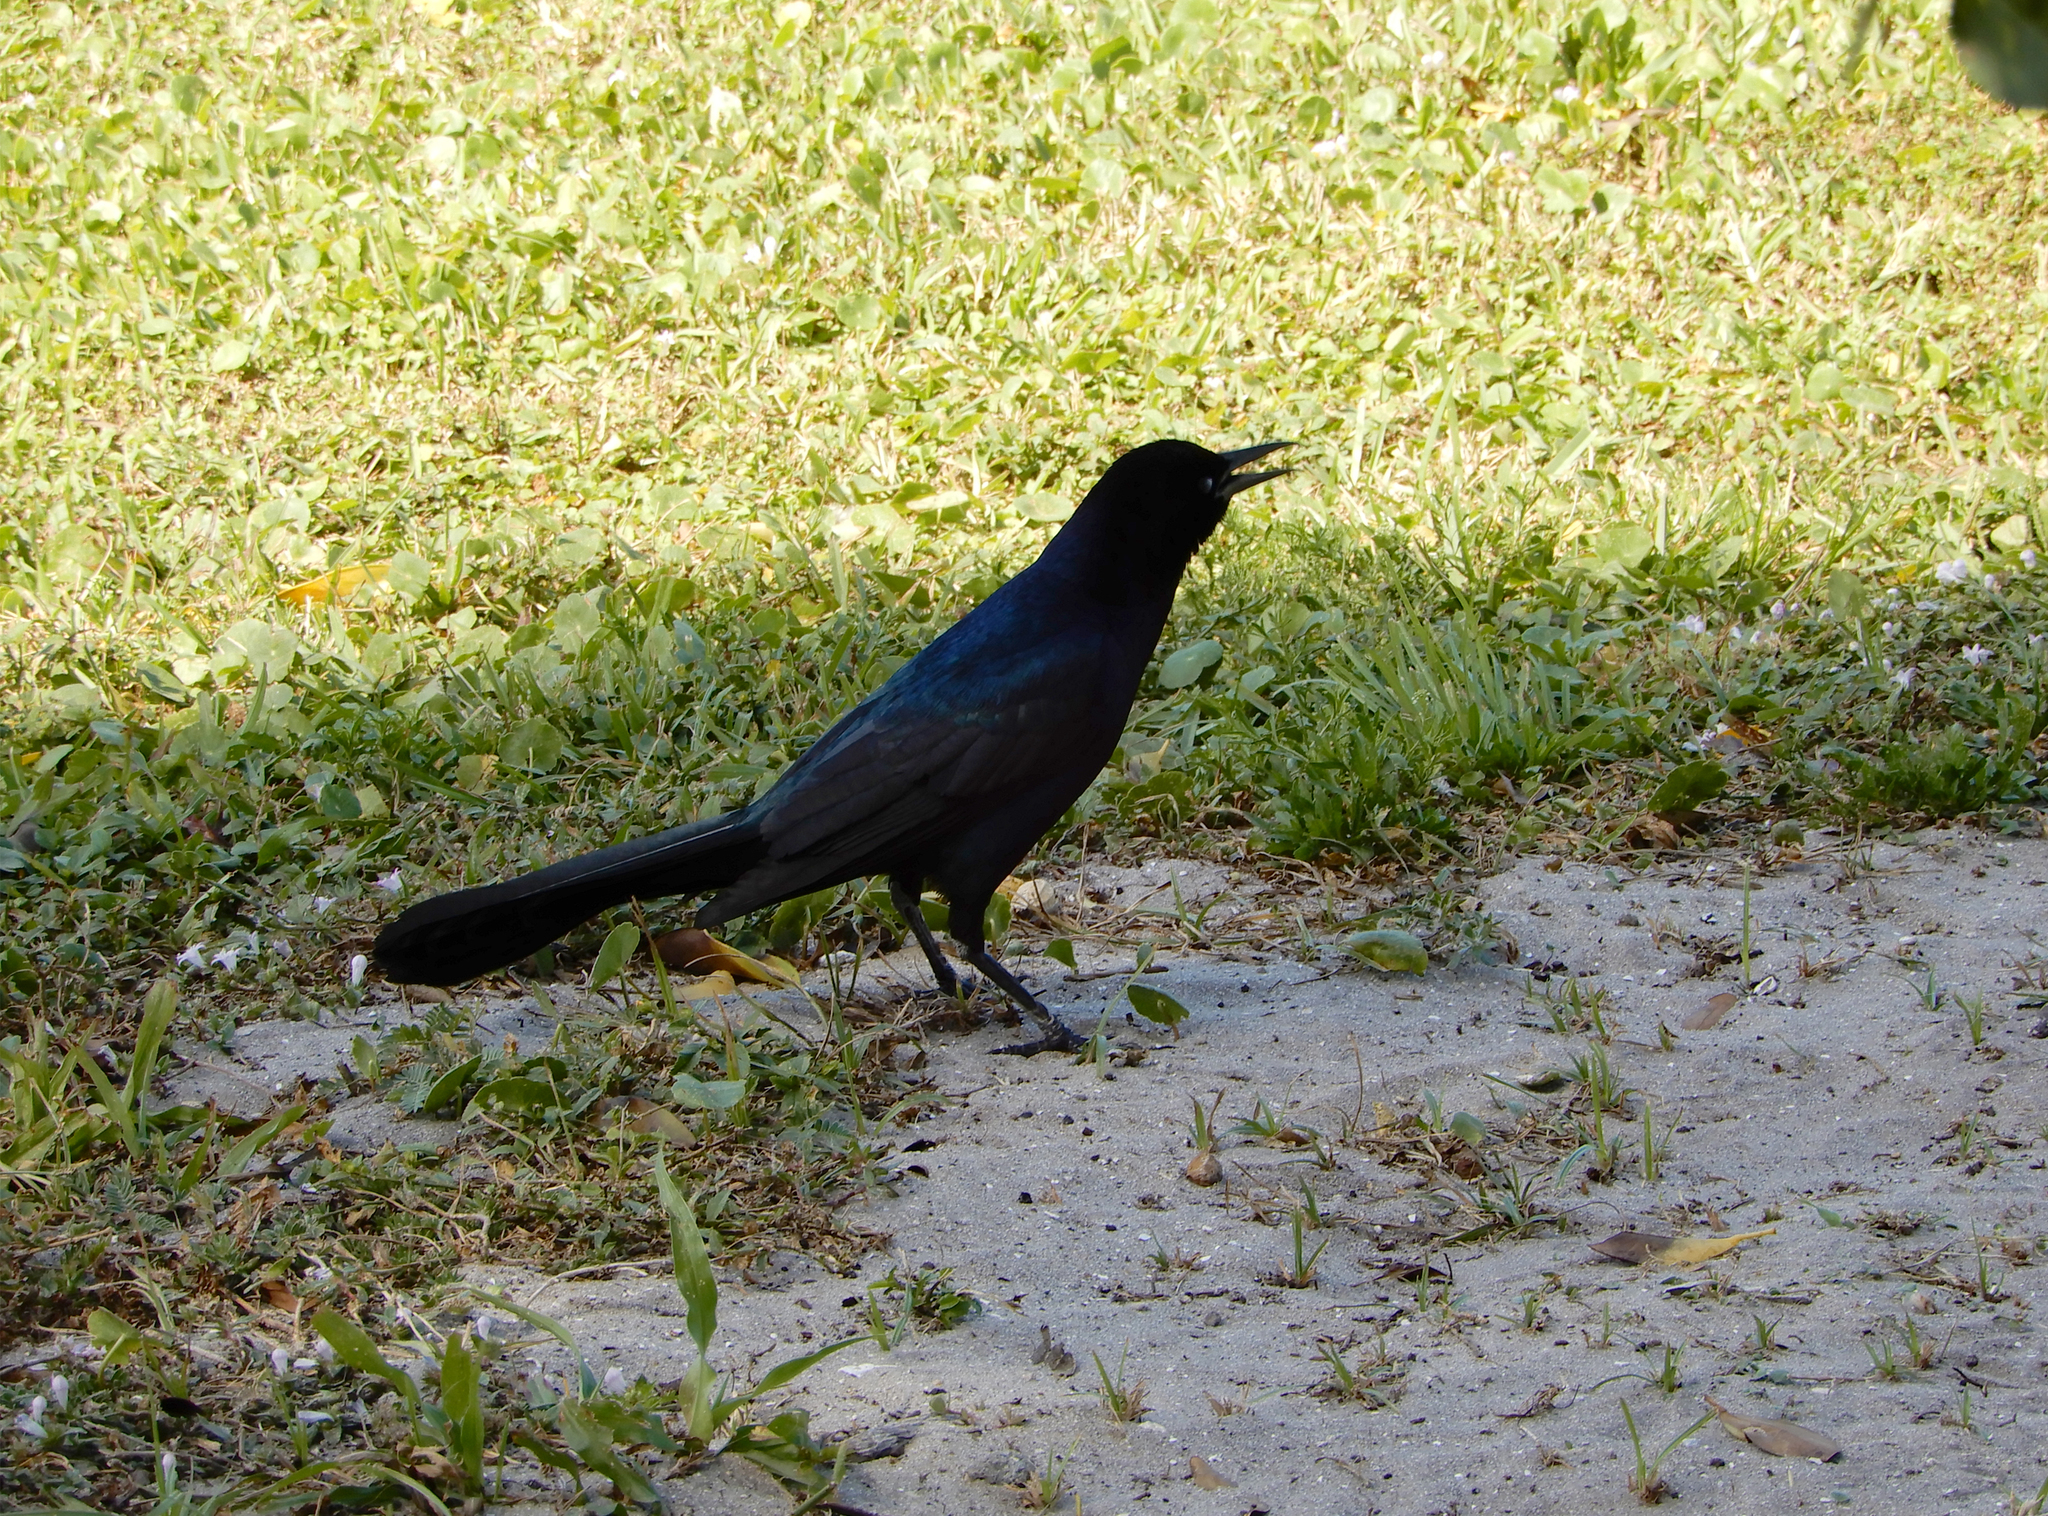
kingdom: Animalia
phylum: Chordata
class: Aves
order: Passeriformes
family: Icteridae
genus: Quiscalus
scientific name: Quiscalus major
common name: Boat-tailed grackle
